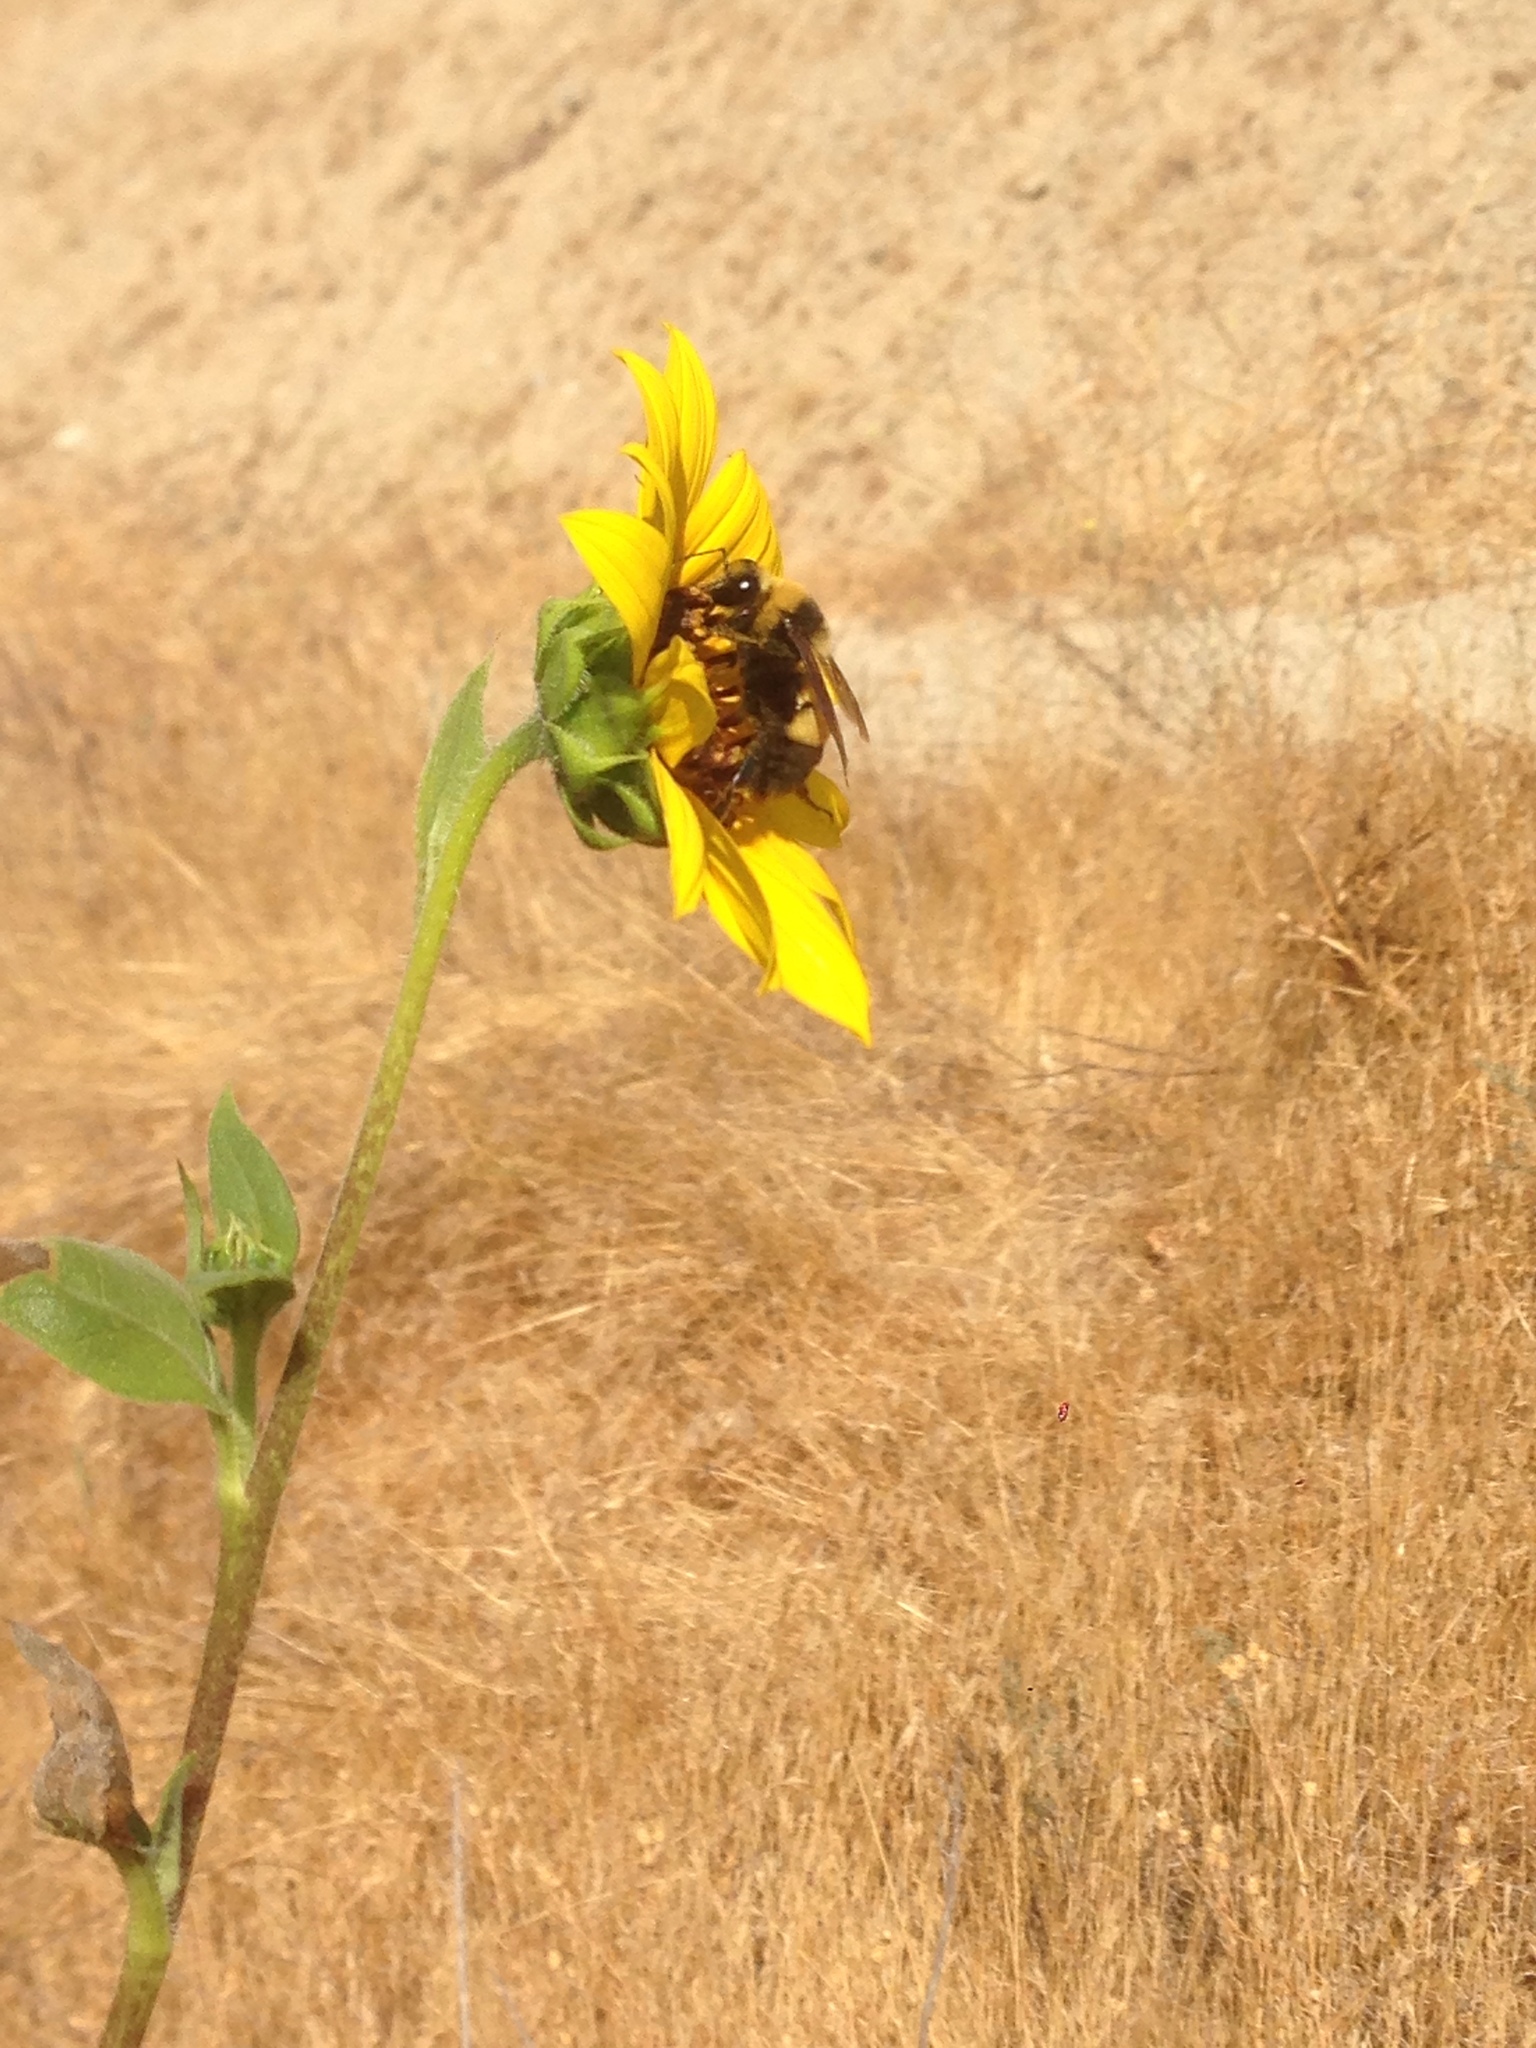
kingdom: Plantae
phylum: Tracheophyta
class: Magnoliopsida
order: Asterales
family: Asteraceae
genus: Helianthus
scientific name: Helianthus annuus
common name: Sunflower
